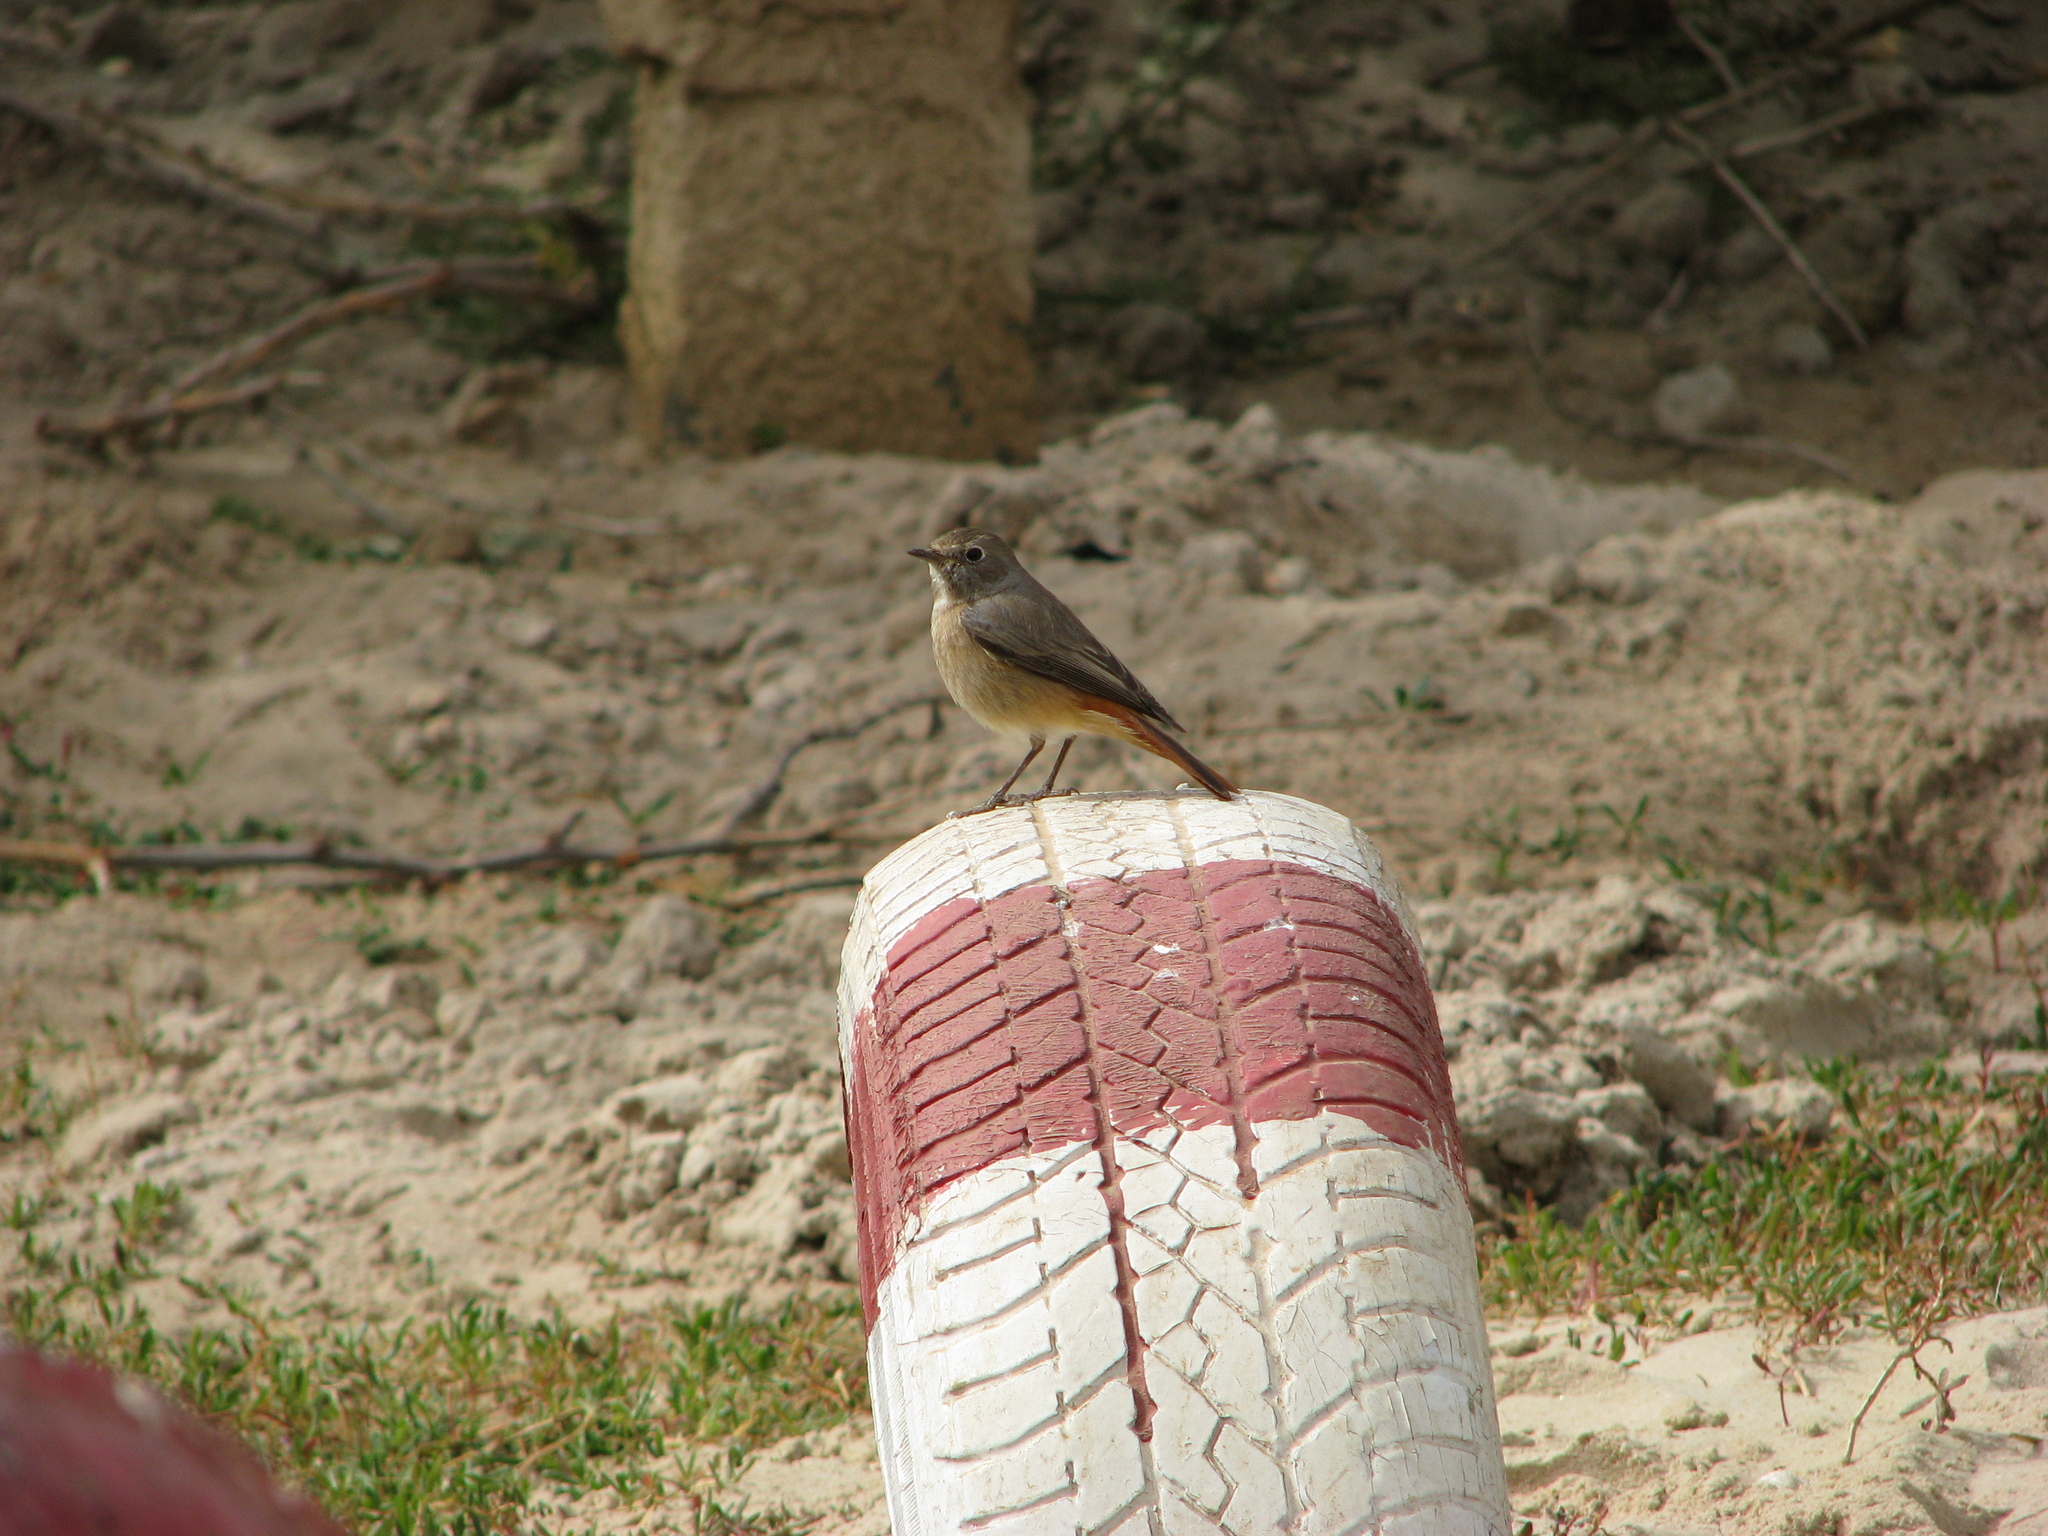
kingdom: Animalia
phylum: Chordata
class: Aves
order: Passeriformes
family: Muscicapidae
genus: Phoenicurus
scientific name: Phoenicurus phoenicurus
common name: Common redstart
